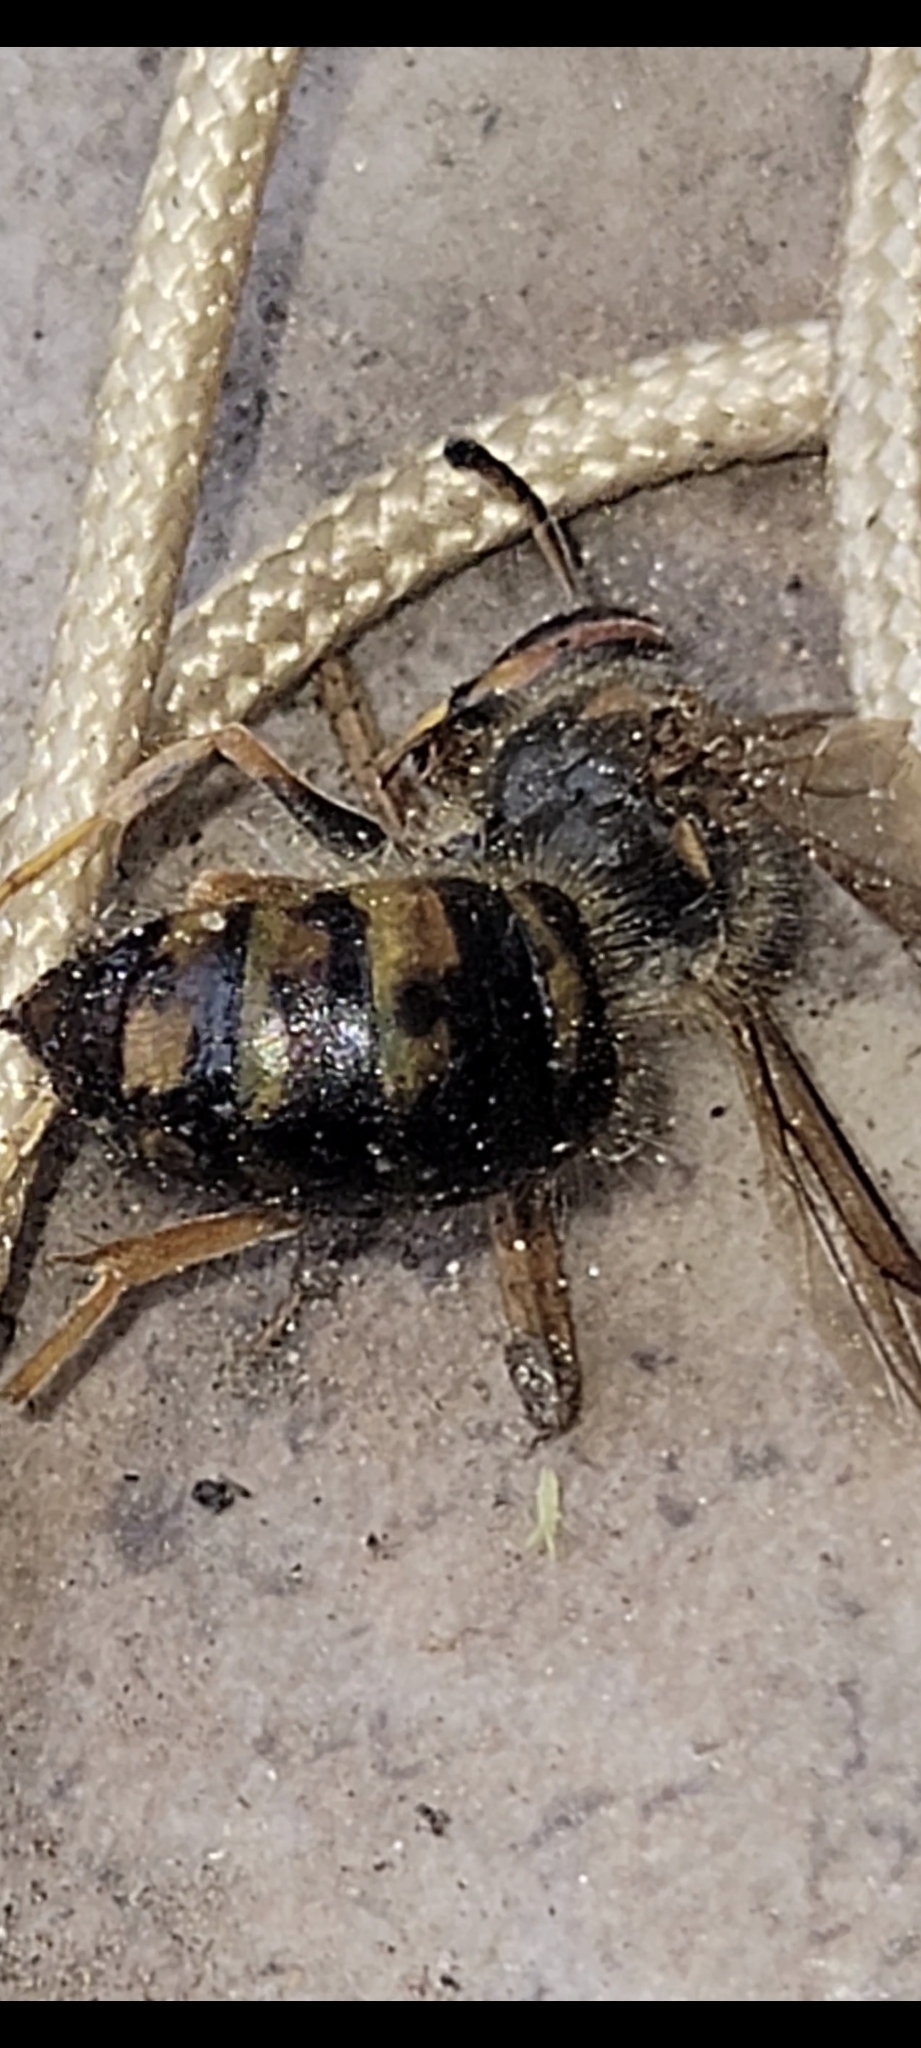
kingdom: Animalia
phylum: Arthropoda
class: Insecta
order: Hymenoptera
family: Vespidae
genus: Dolichovespula
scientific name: Dolichovespula arenaria
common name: Aerial yellowjacket
